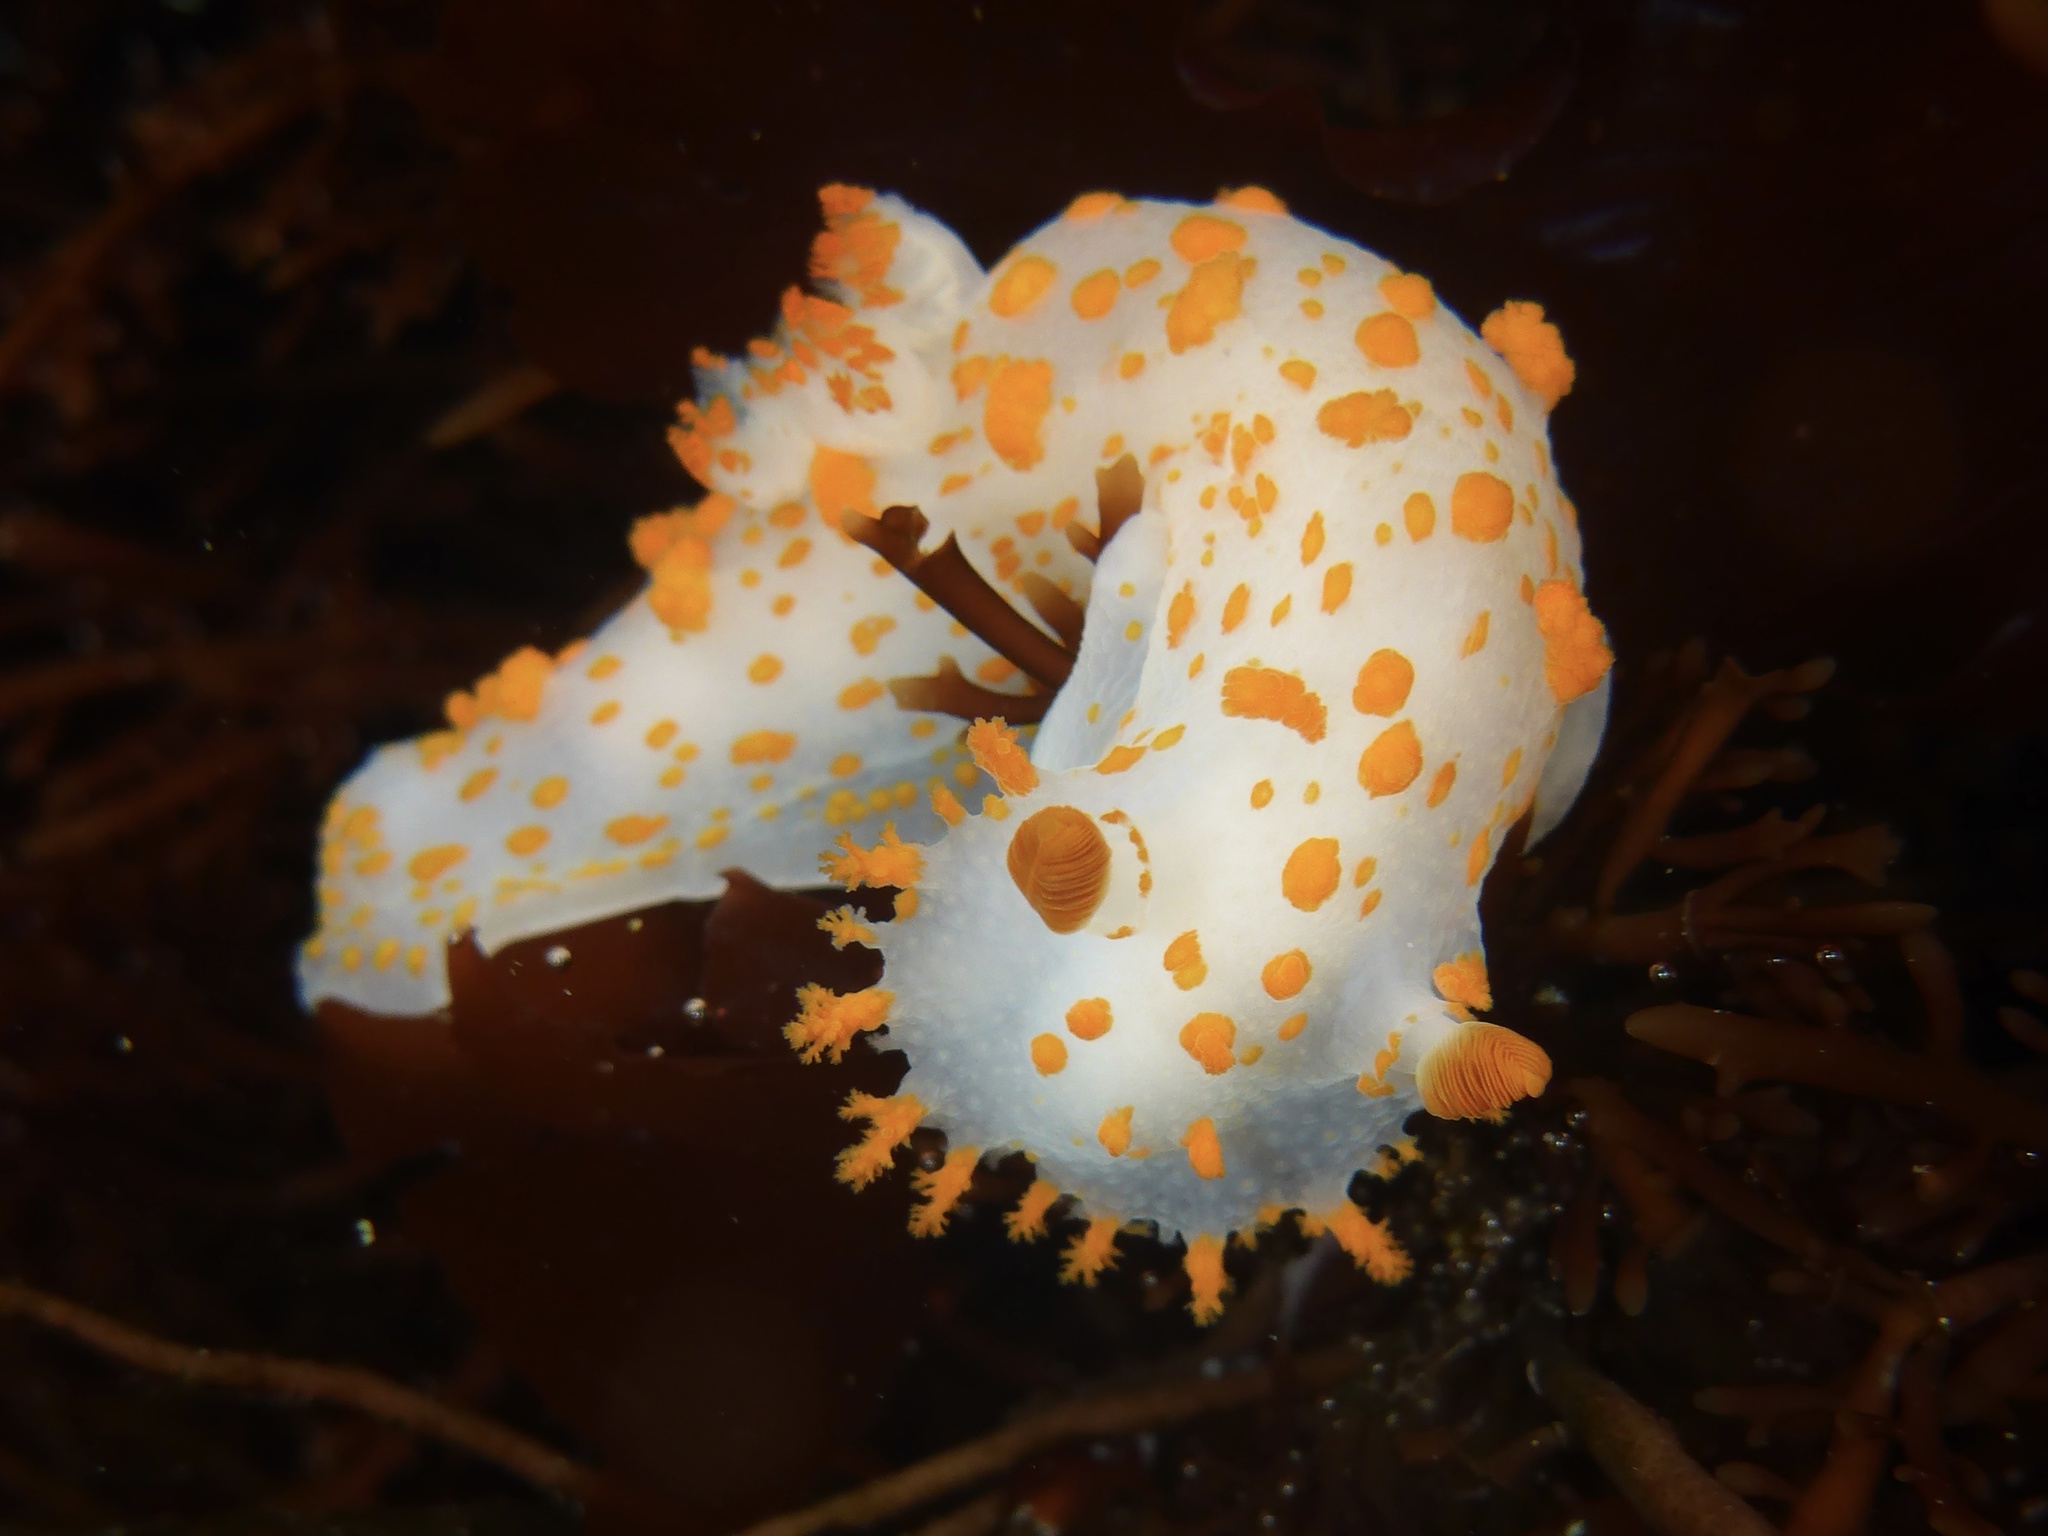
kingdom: Animalia
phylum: Mollusca
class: Gastropoda
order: Nudibranchia
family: Polyceridae
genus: Triopha
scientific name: Triopha catalinae
